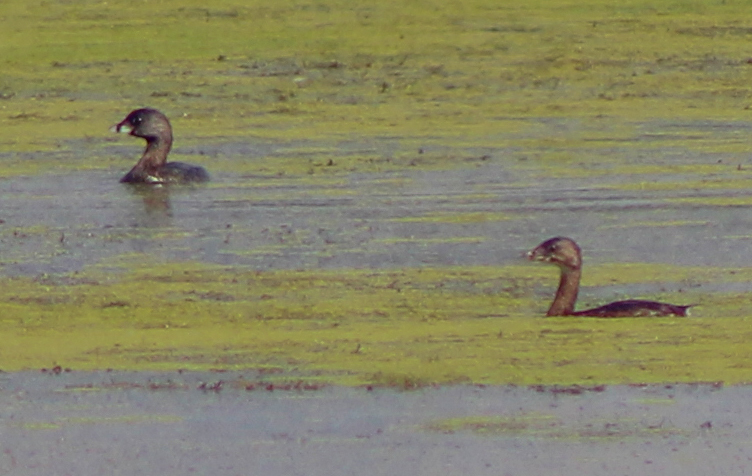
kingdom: Animalia
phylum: Chordata
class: Aves
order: Podicipediformes
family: Podicipedidae
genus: Podilymbus
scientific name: Podilymbus podiceps
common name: Pied-billed grebe
